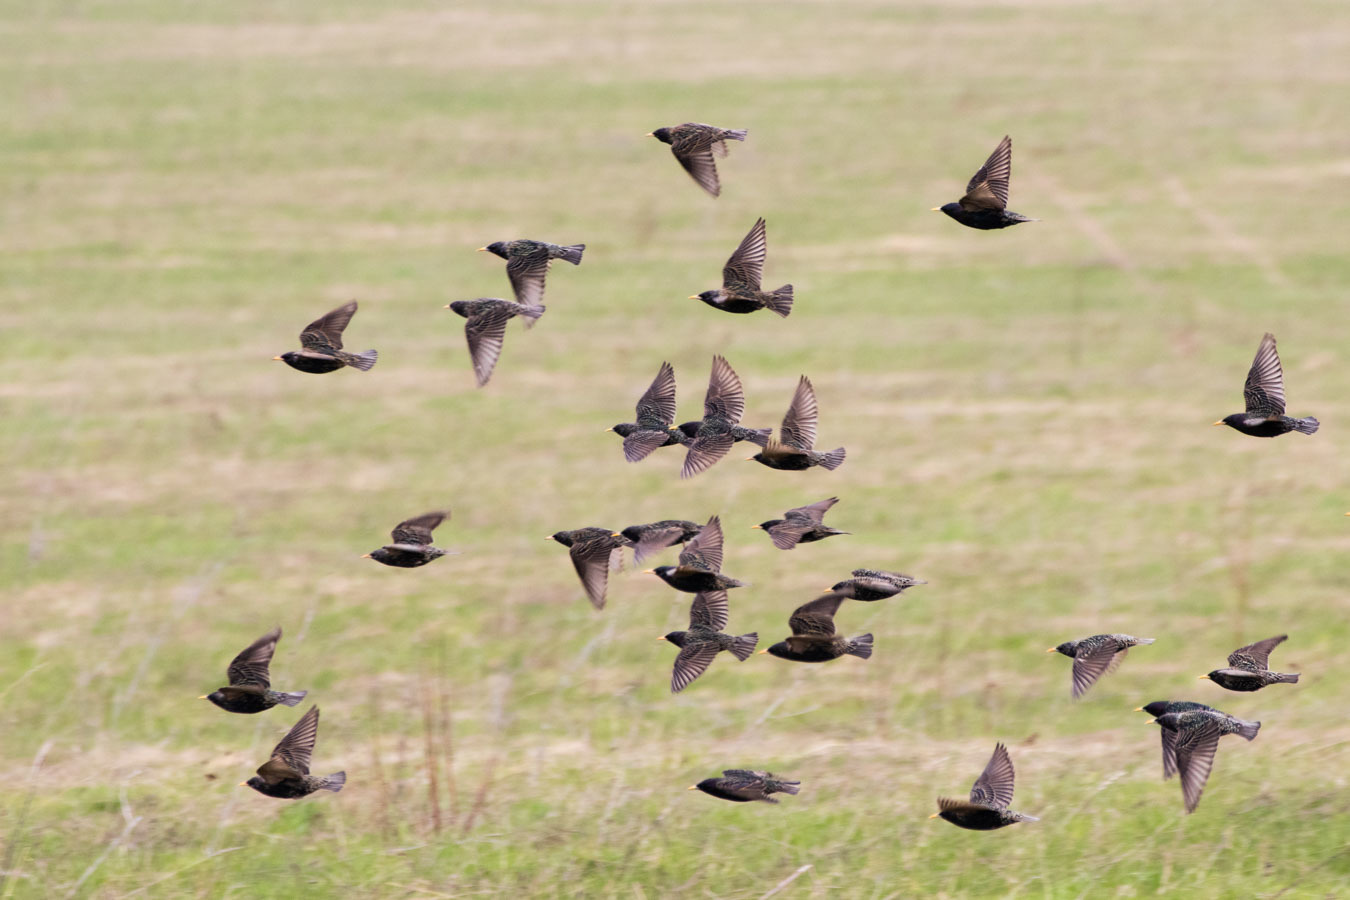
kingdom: Animalia
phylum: Chordata
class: Aves
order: Passeriformes
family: Sturnidae
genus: Sturnus
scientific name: Sturnus vulgaris
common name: Common starling
